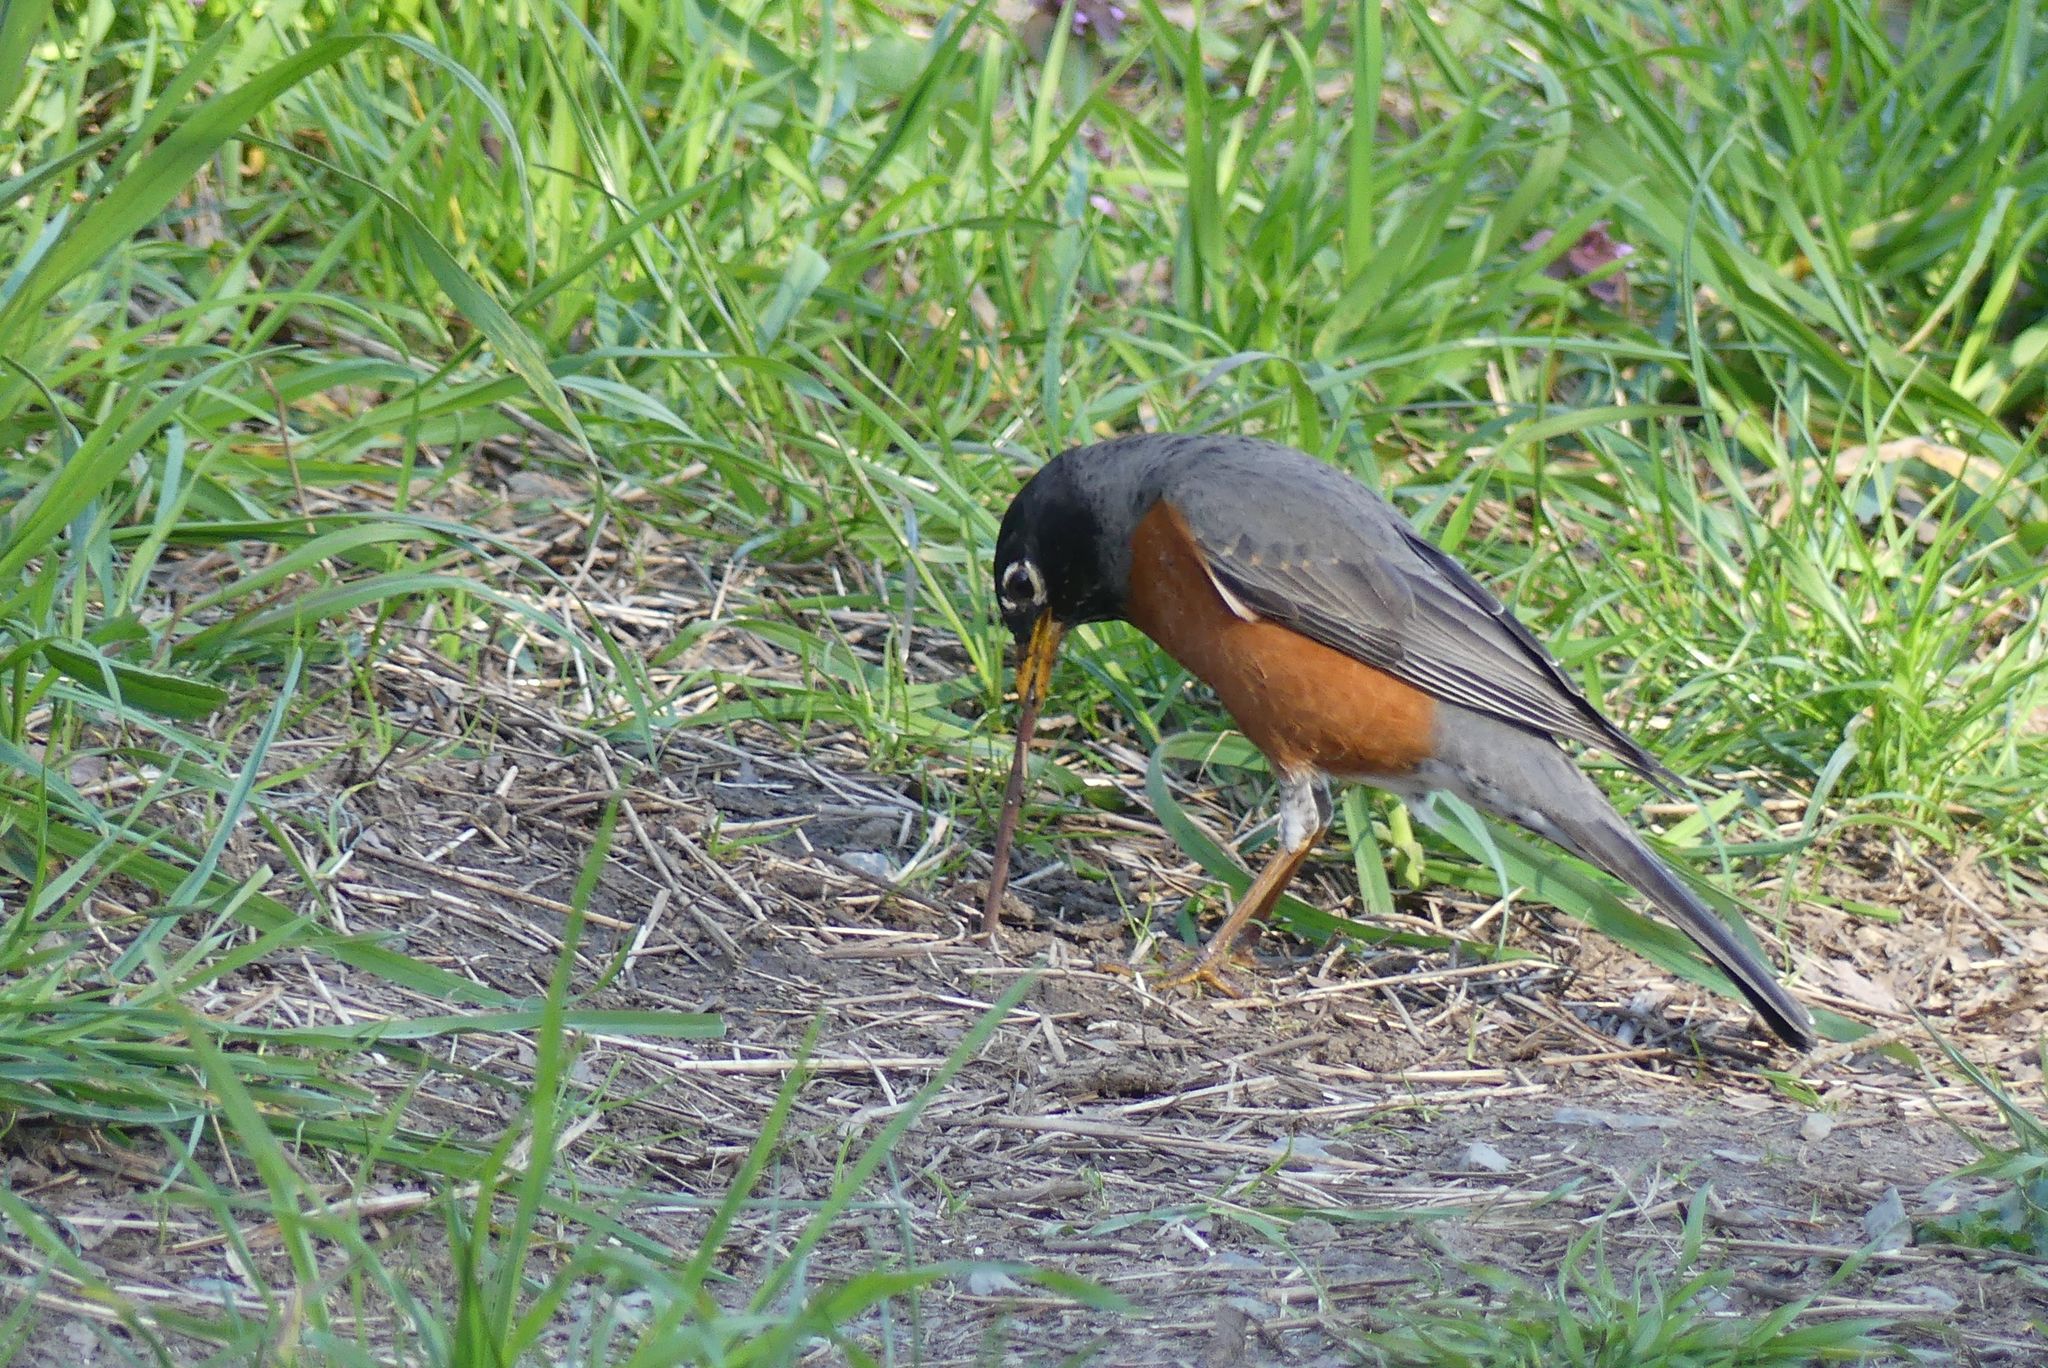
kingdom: Animalia
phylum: Chordata
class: Aves
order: Passeriformes
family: Turdidae
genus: Turdus
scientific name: Turdus migratorius
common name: American robin
